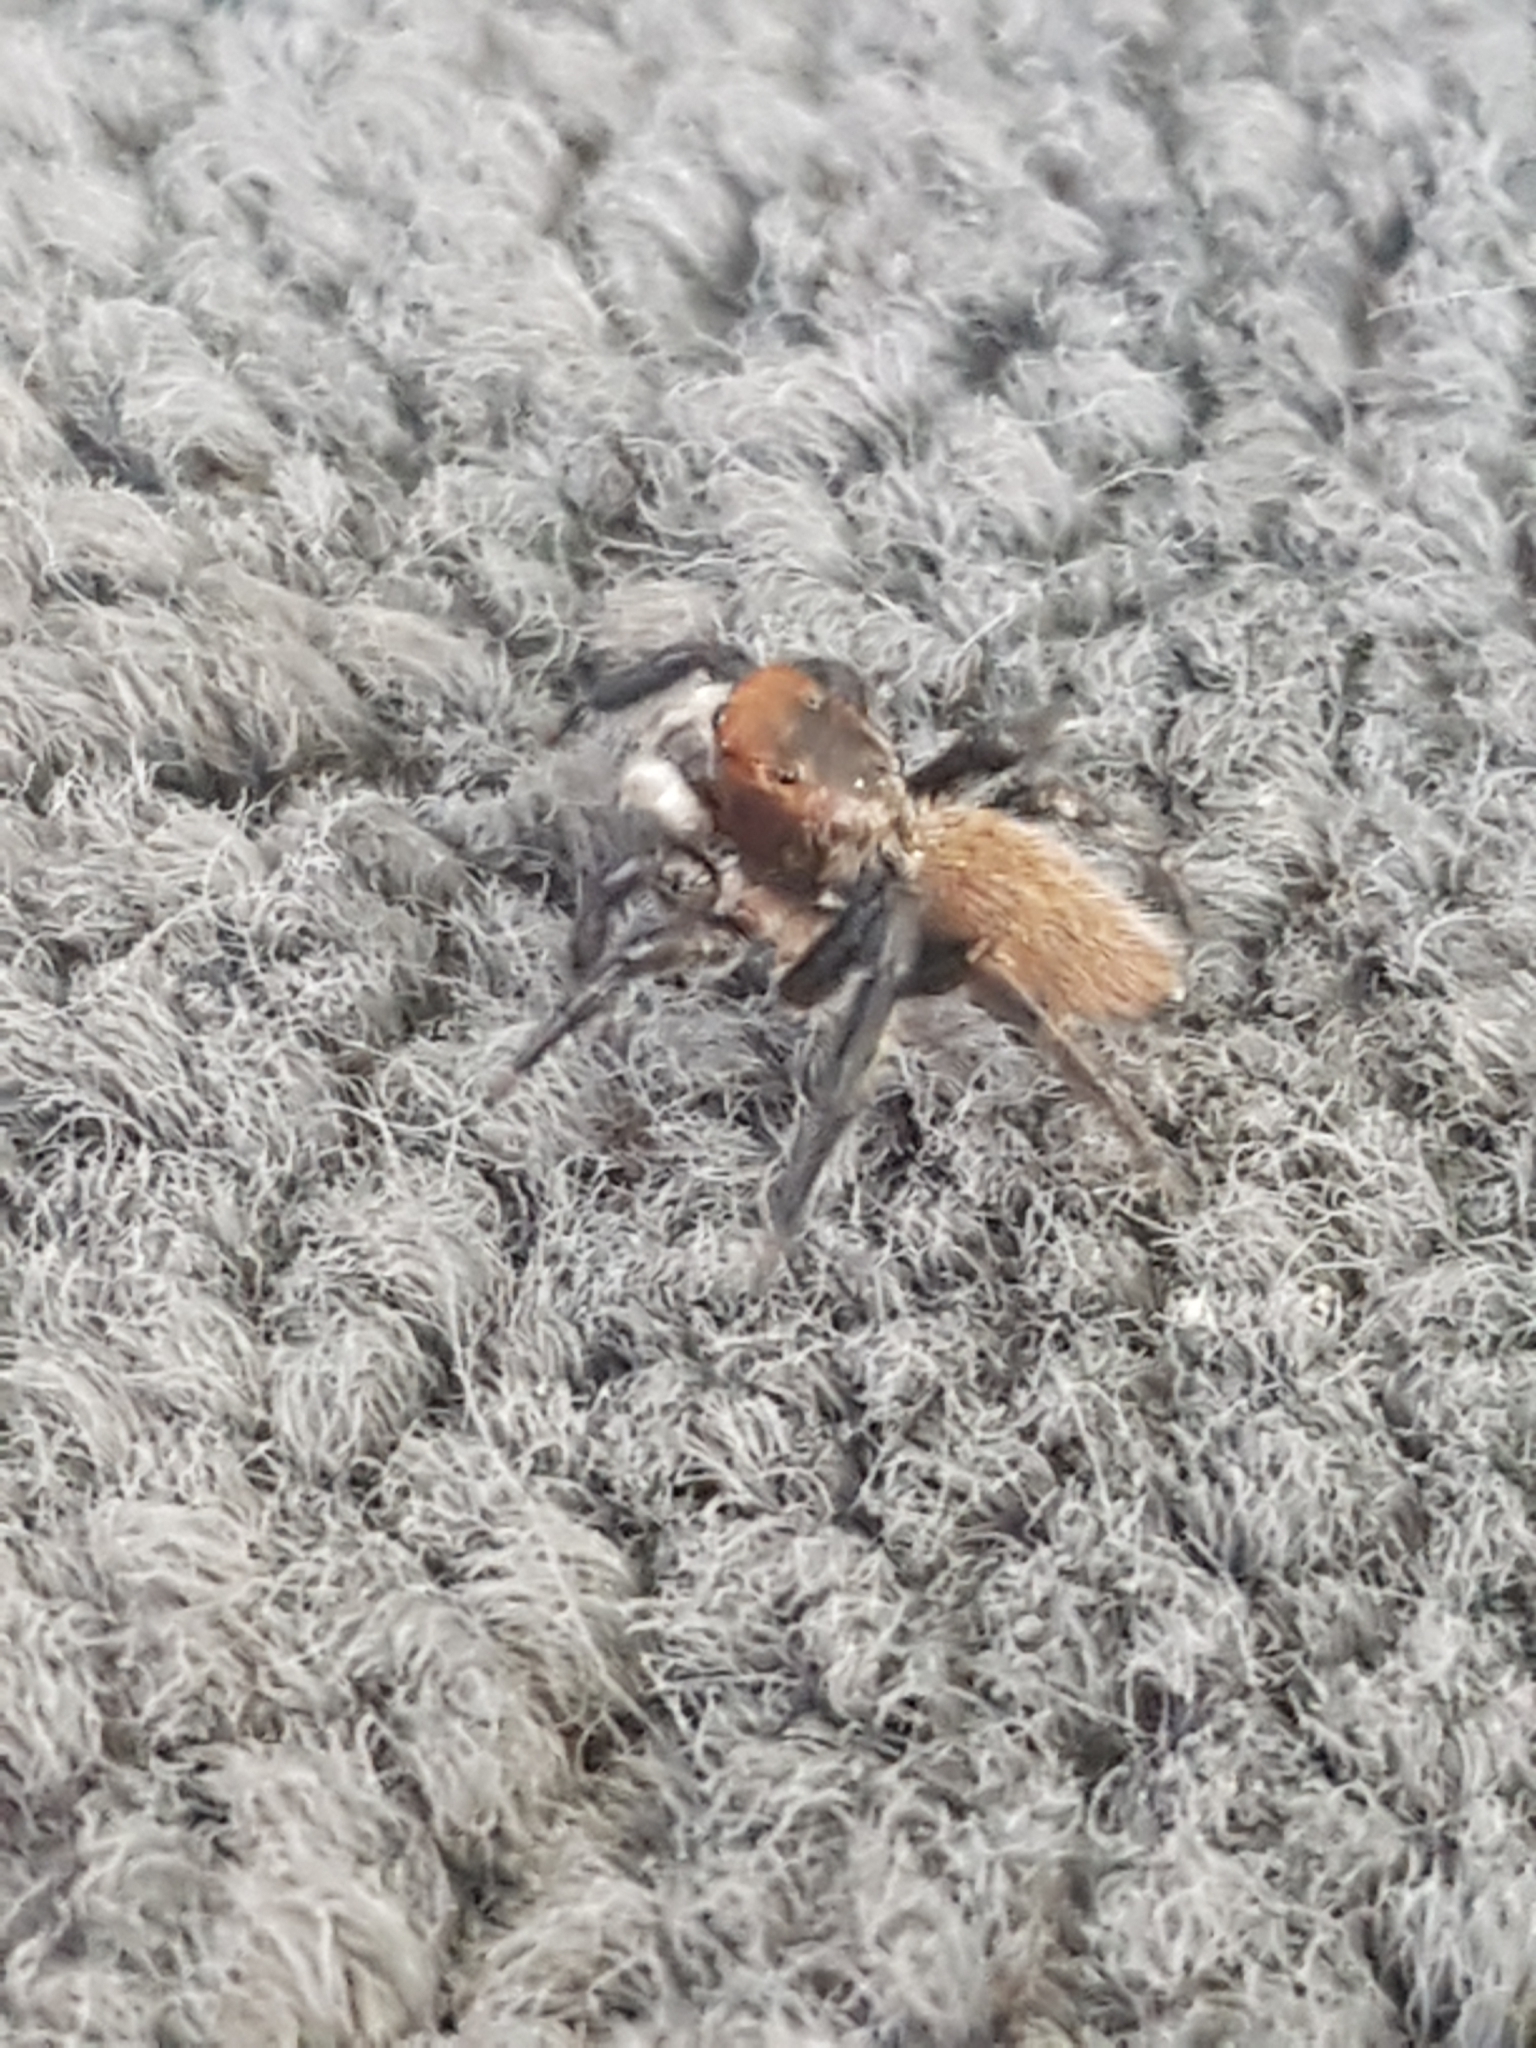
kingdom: Animalia
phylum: Arthropoda
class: Arachnida
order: Araneae
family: Salticidae
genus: Maratus
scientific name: Maratus griseus
